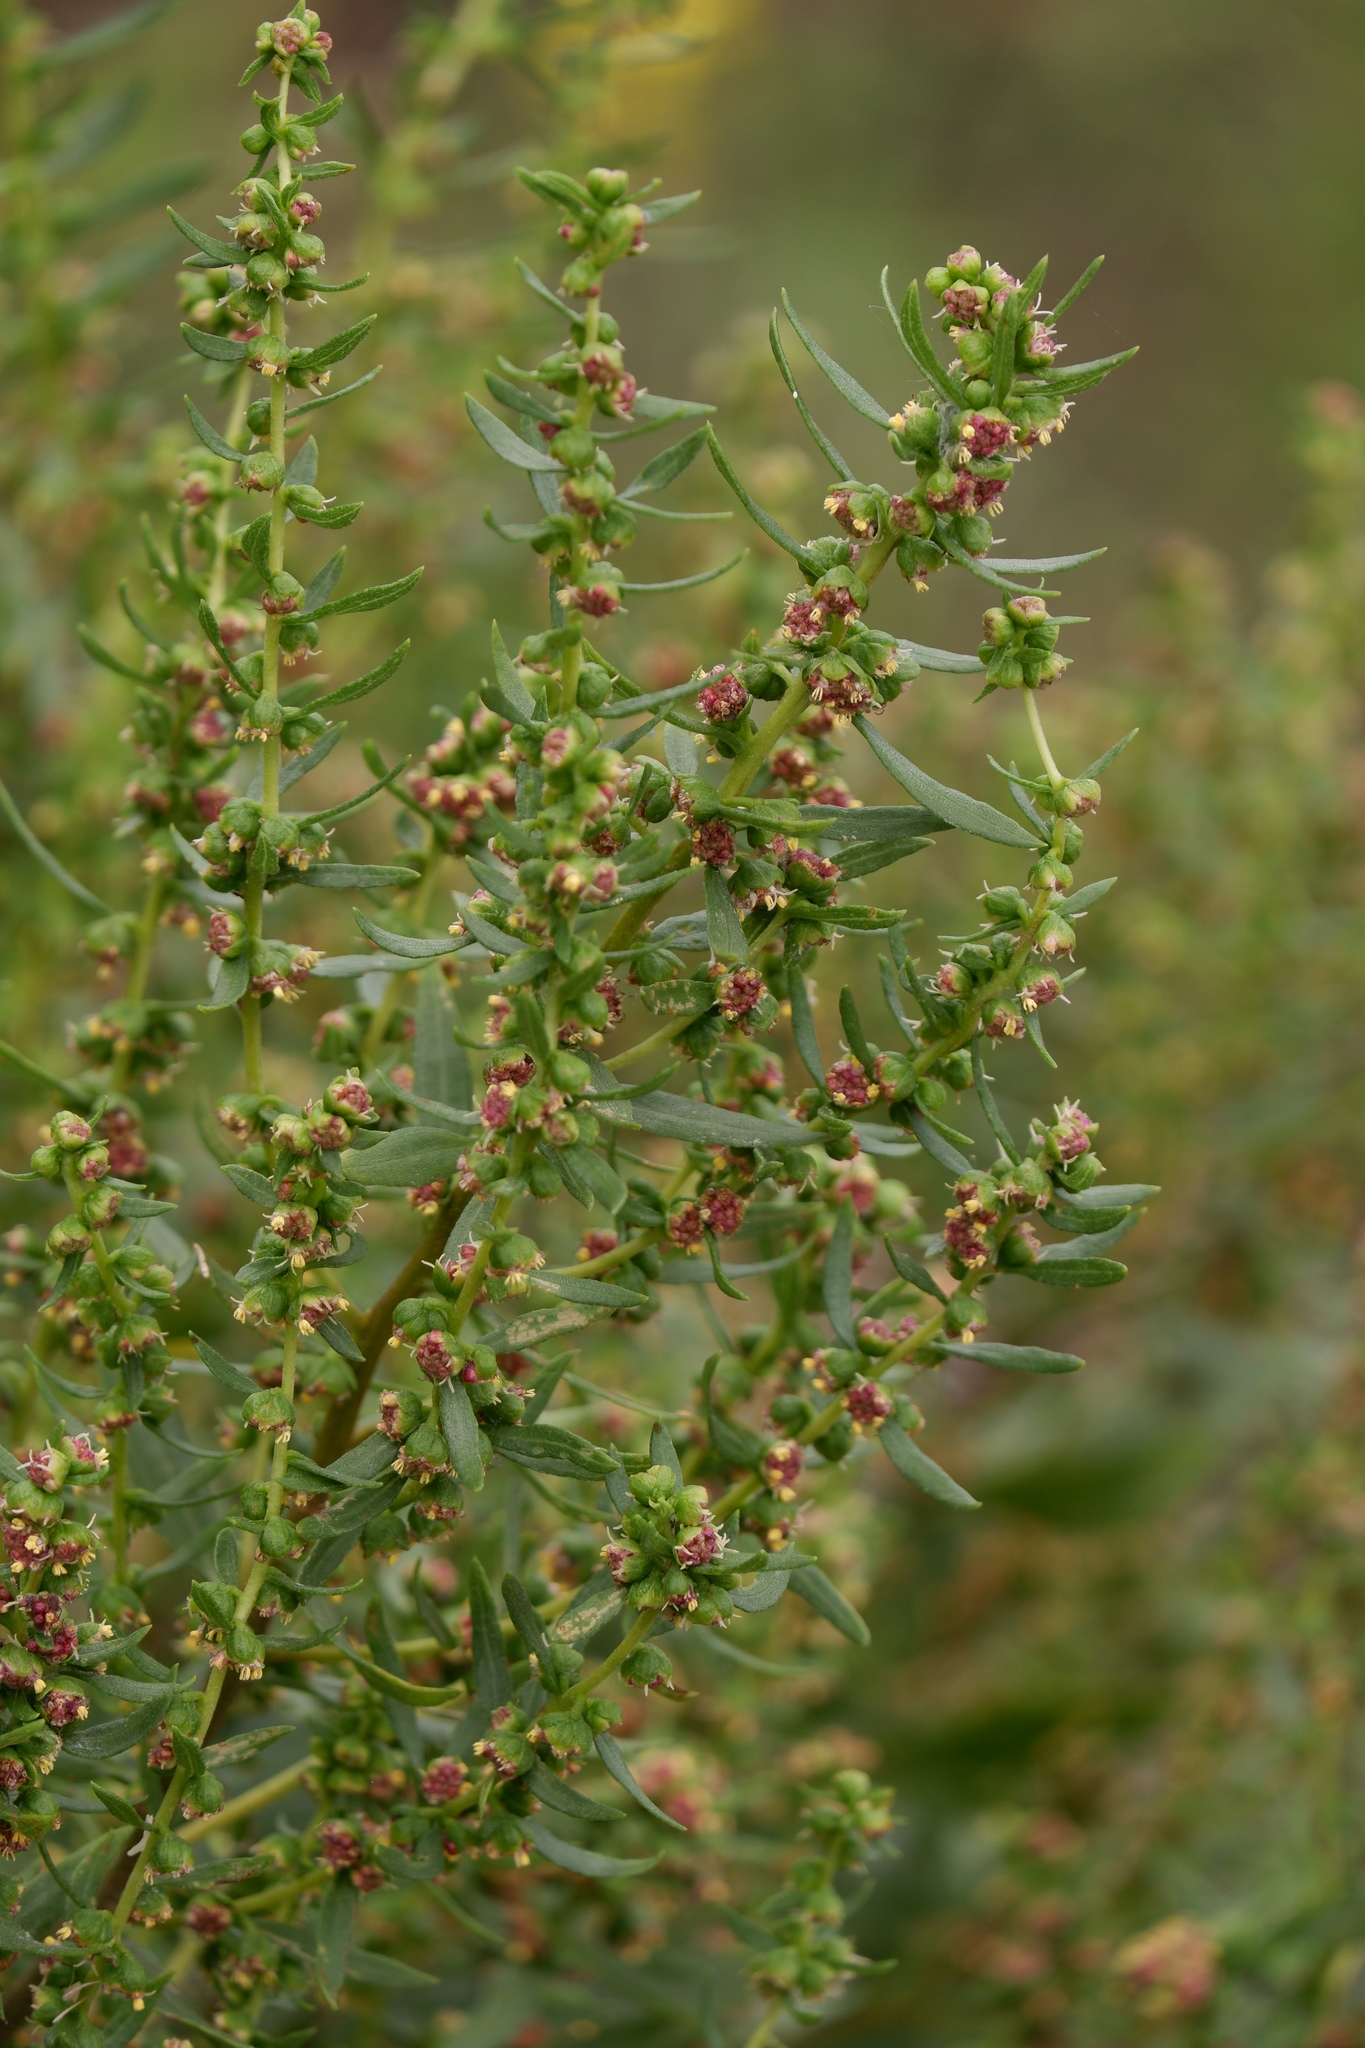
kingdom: Plantae
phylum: Tracheophyta
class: Magnoliopsida
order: Asterales
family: Asteraceae
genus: Iva
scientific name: Iva frutescens
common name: Big-leaved marsh-elder
